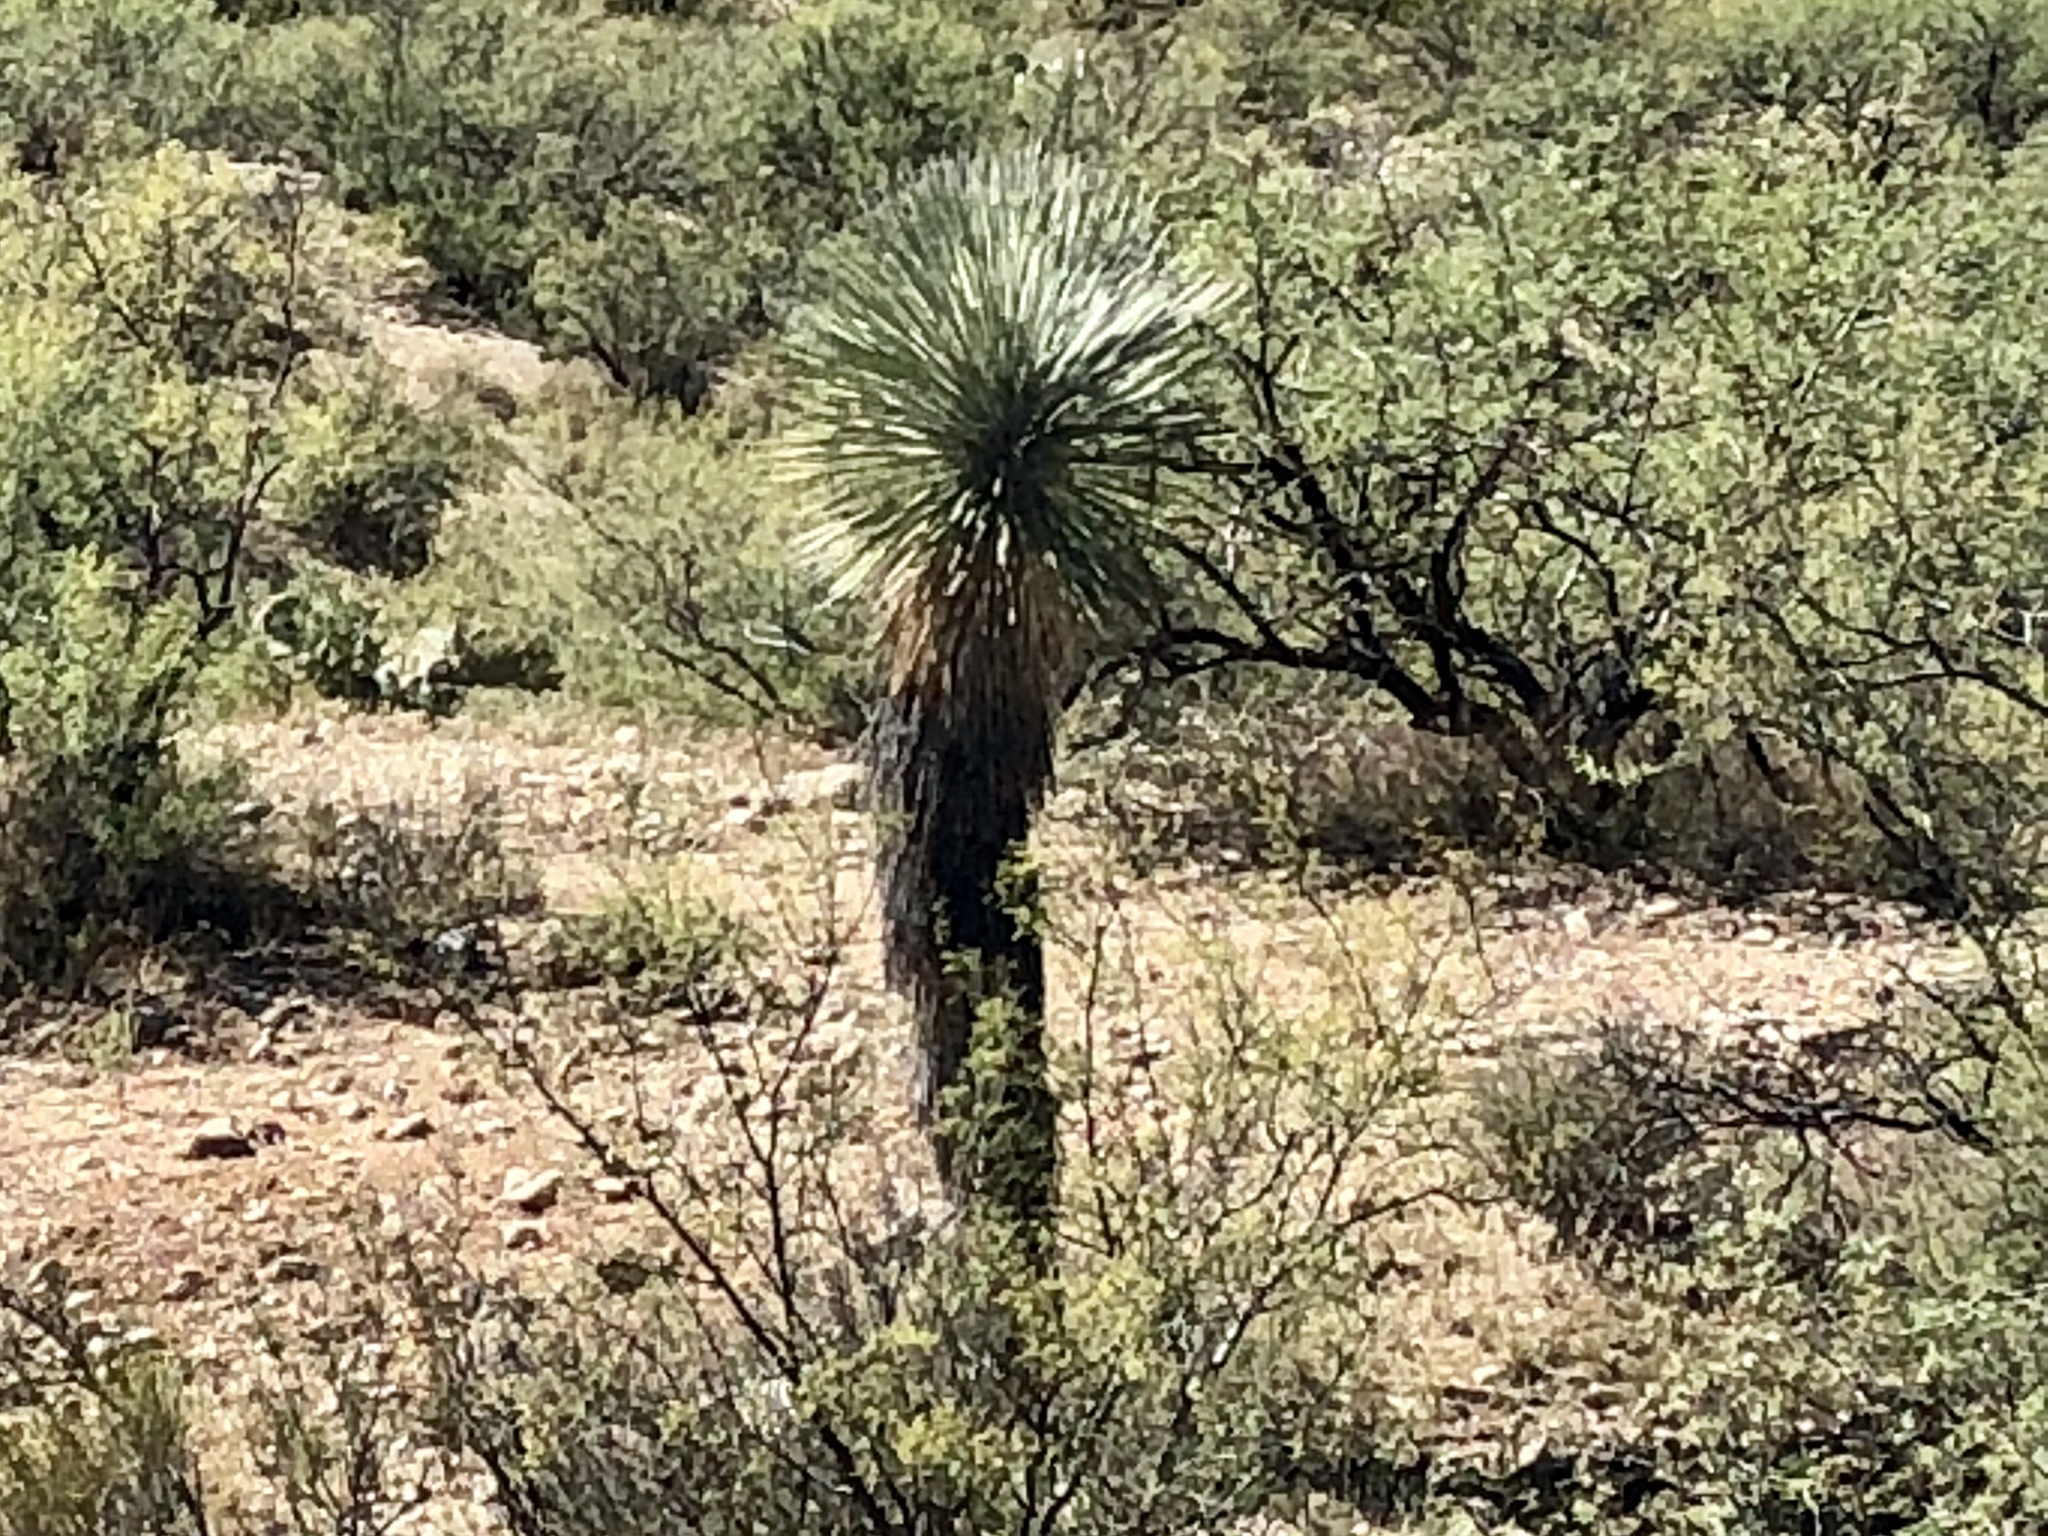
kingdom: Plantae
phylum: Tracheophyta
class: Liliopsida
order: Asparagales
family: Asparagaceae
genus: Yucca
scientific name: Yucca elata
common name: Palmella
